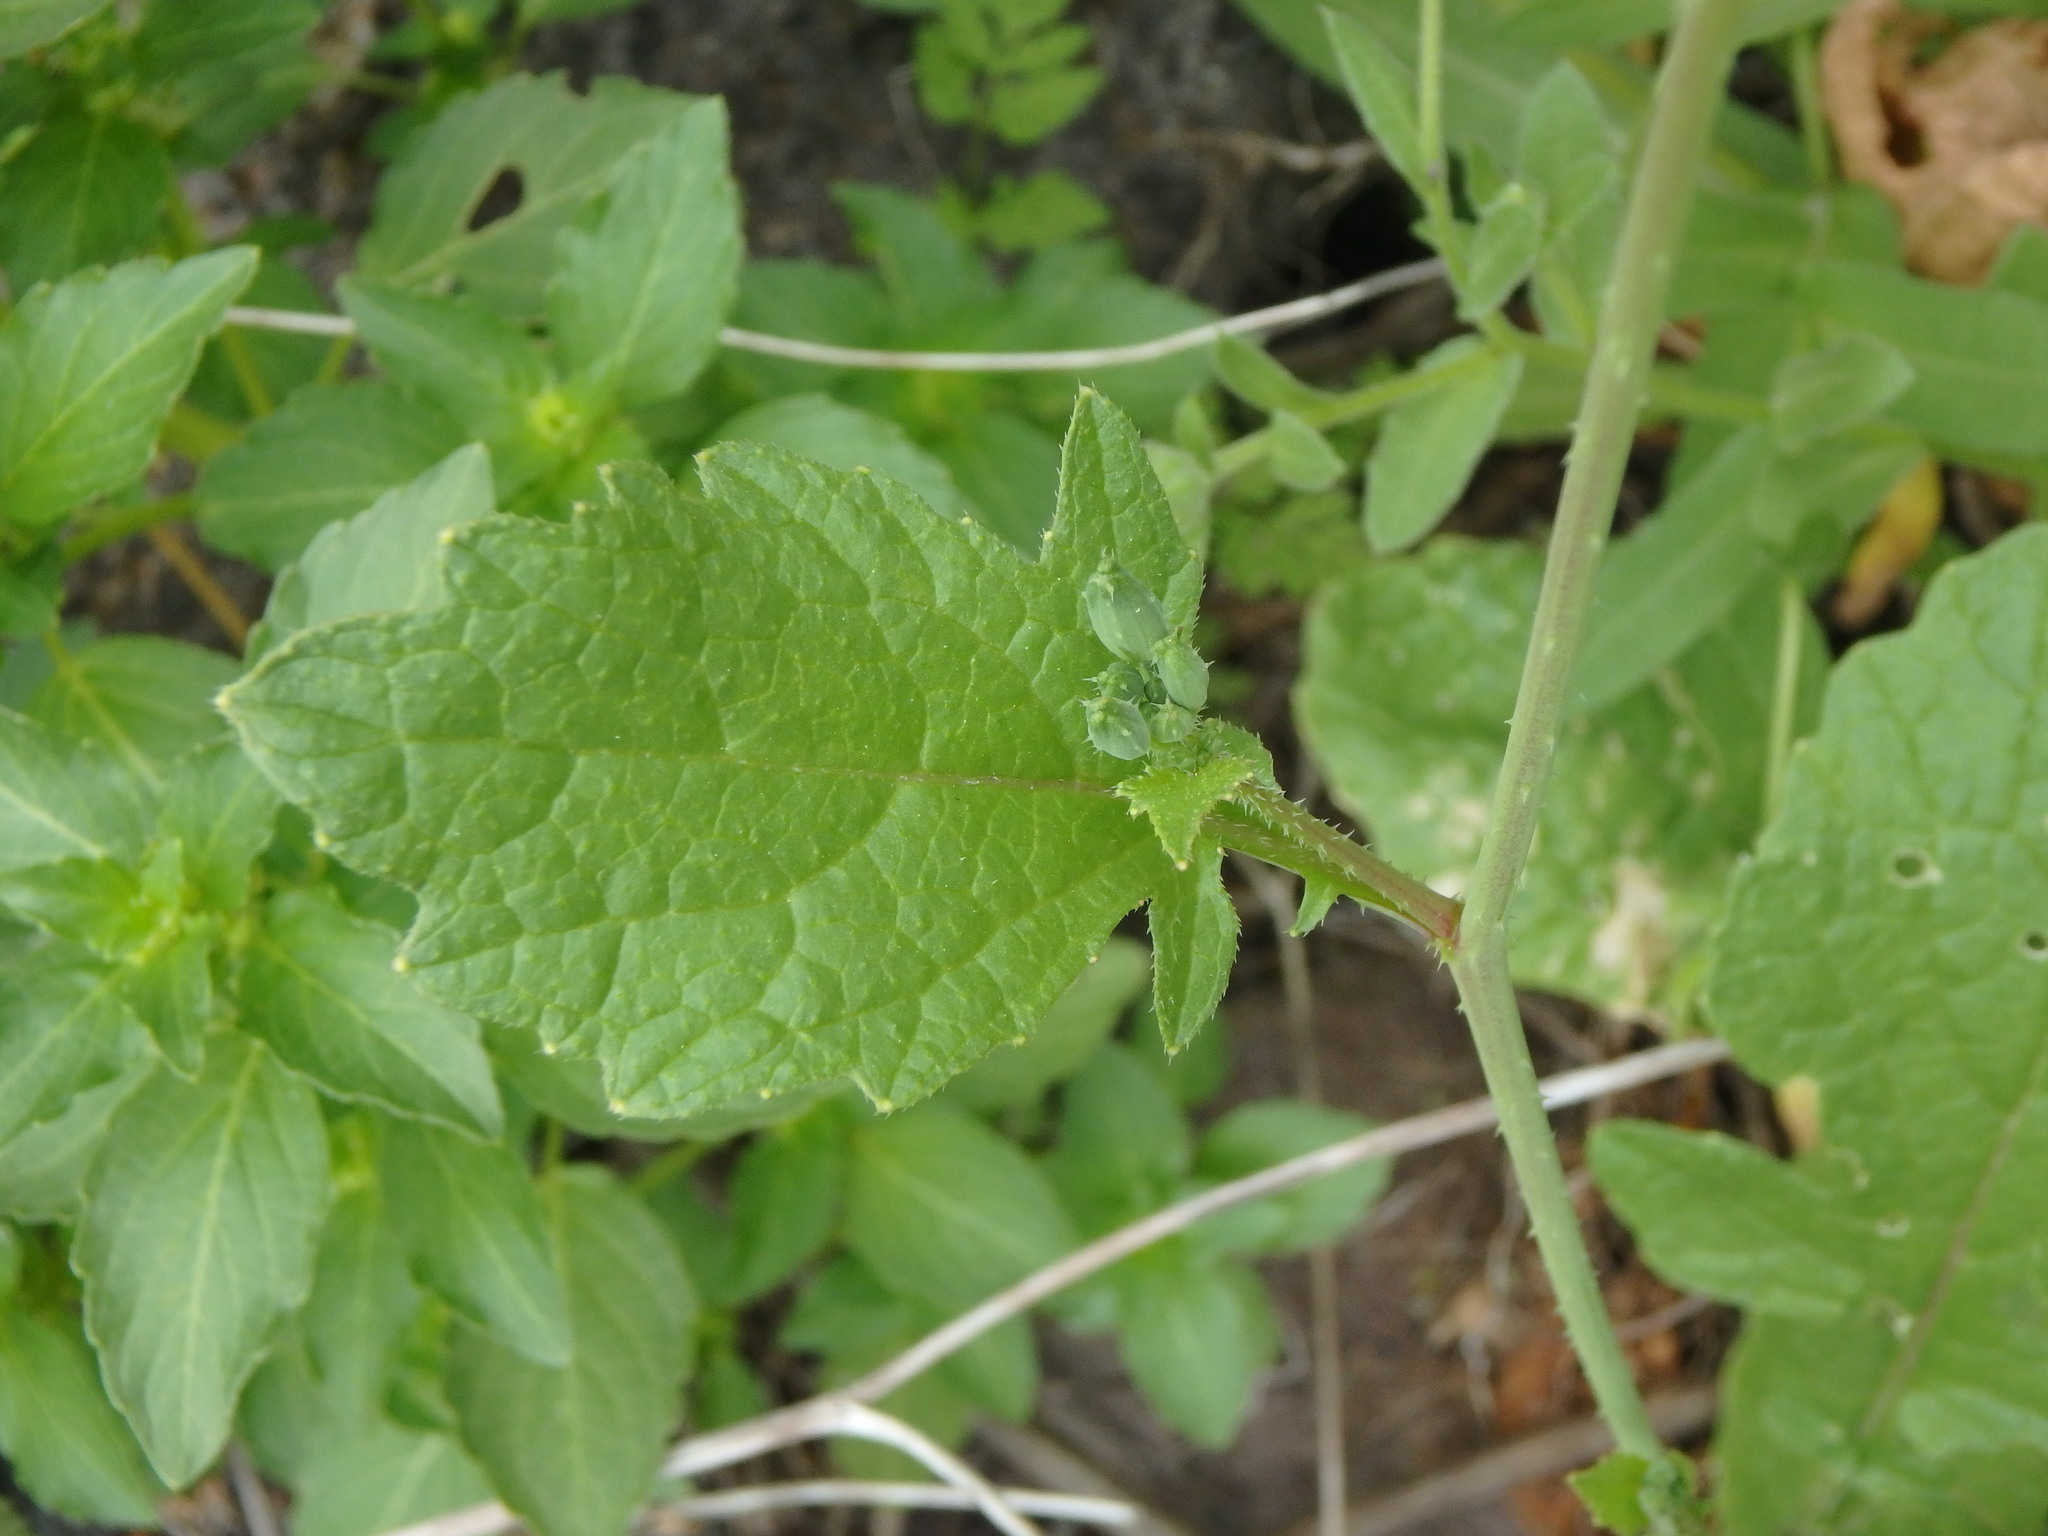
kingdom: Plantae
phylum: Tracheophyta
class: Magnoliopsida
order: Brassicales
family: Brassicaceae
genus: Raphanus
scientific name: Raphanus raphanistrum
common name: Wild radish
